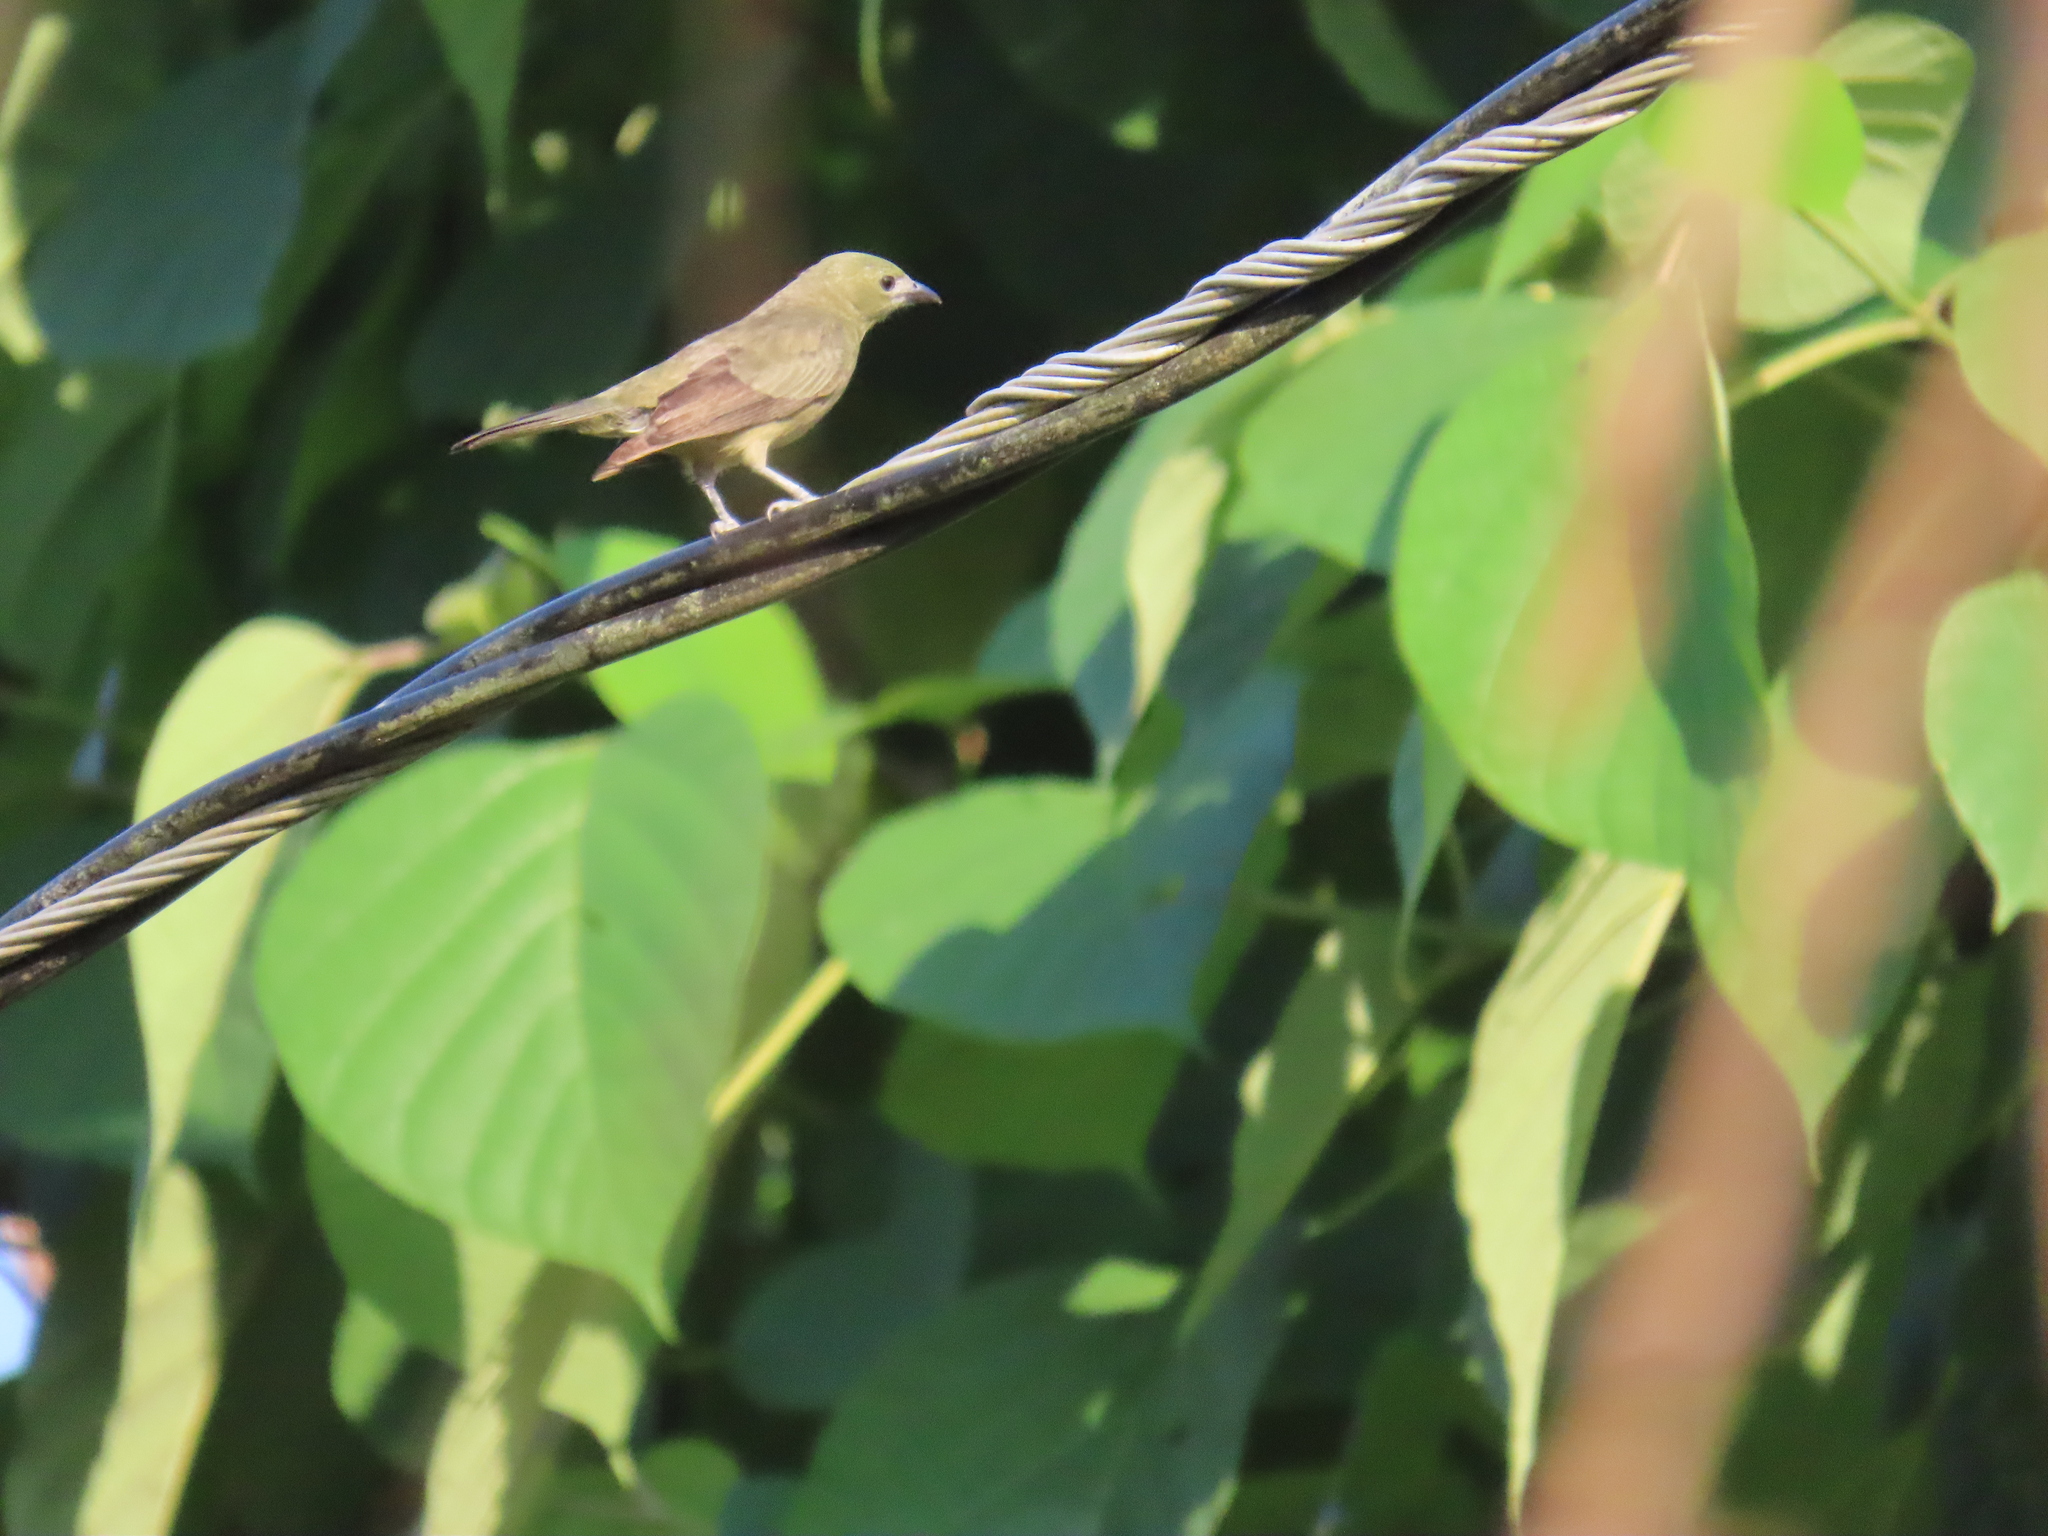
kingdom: Animalia
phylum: Chordata
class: Aves
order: Passeriformes
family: Thraupidae
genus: Thraupis
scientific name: Thraupis palmarum
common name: Palm tanager
